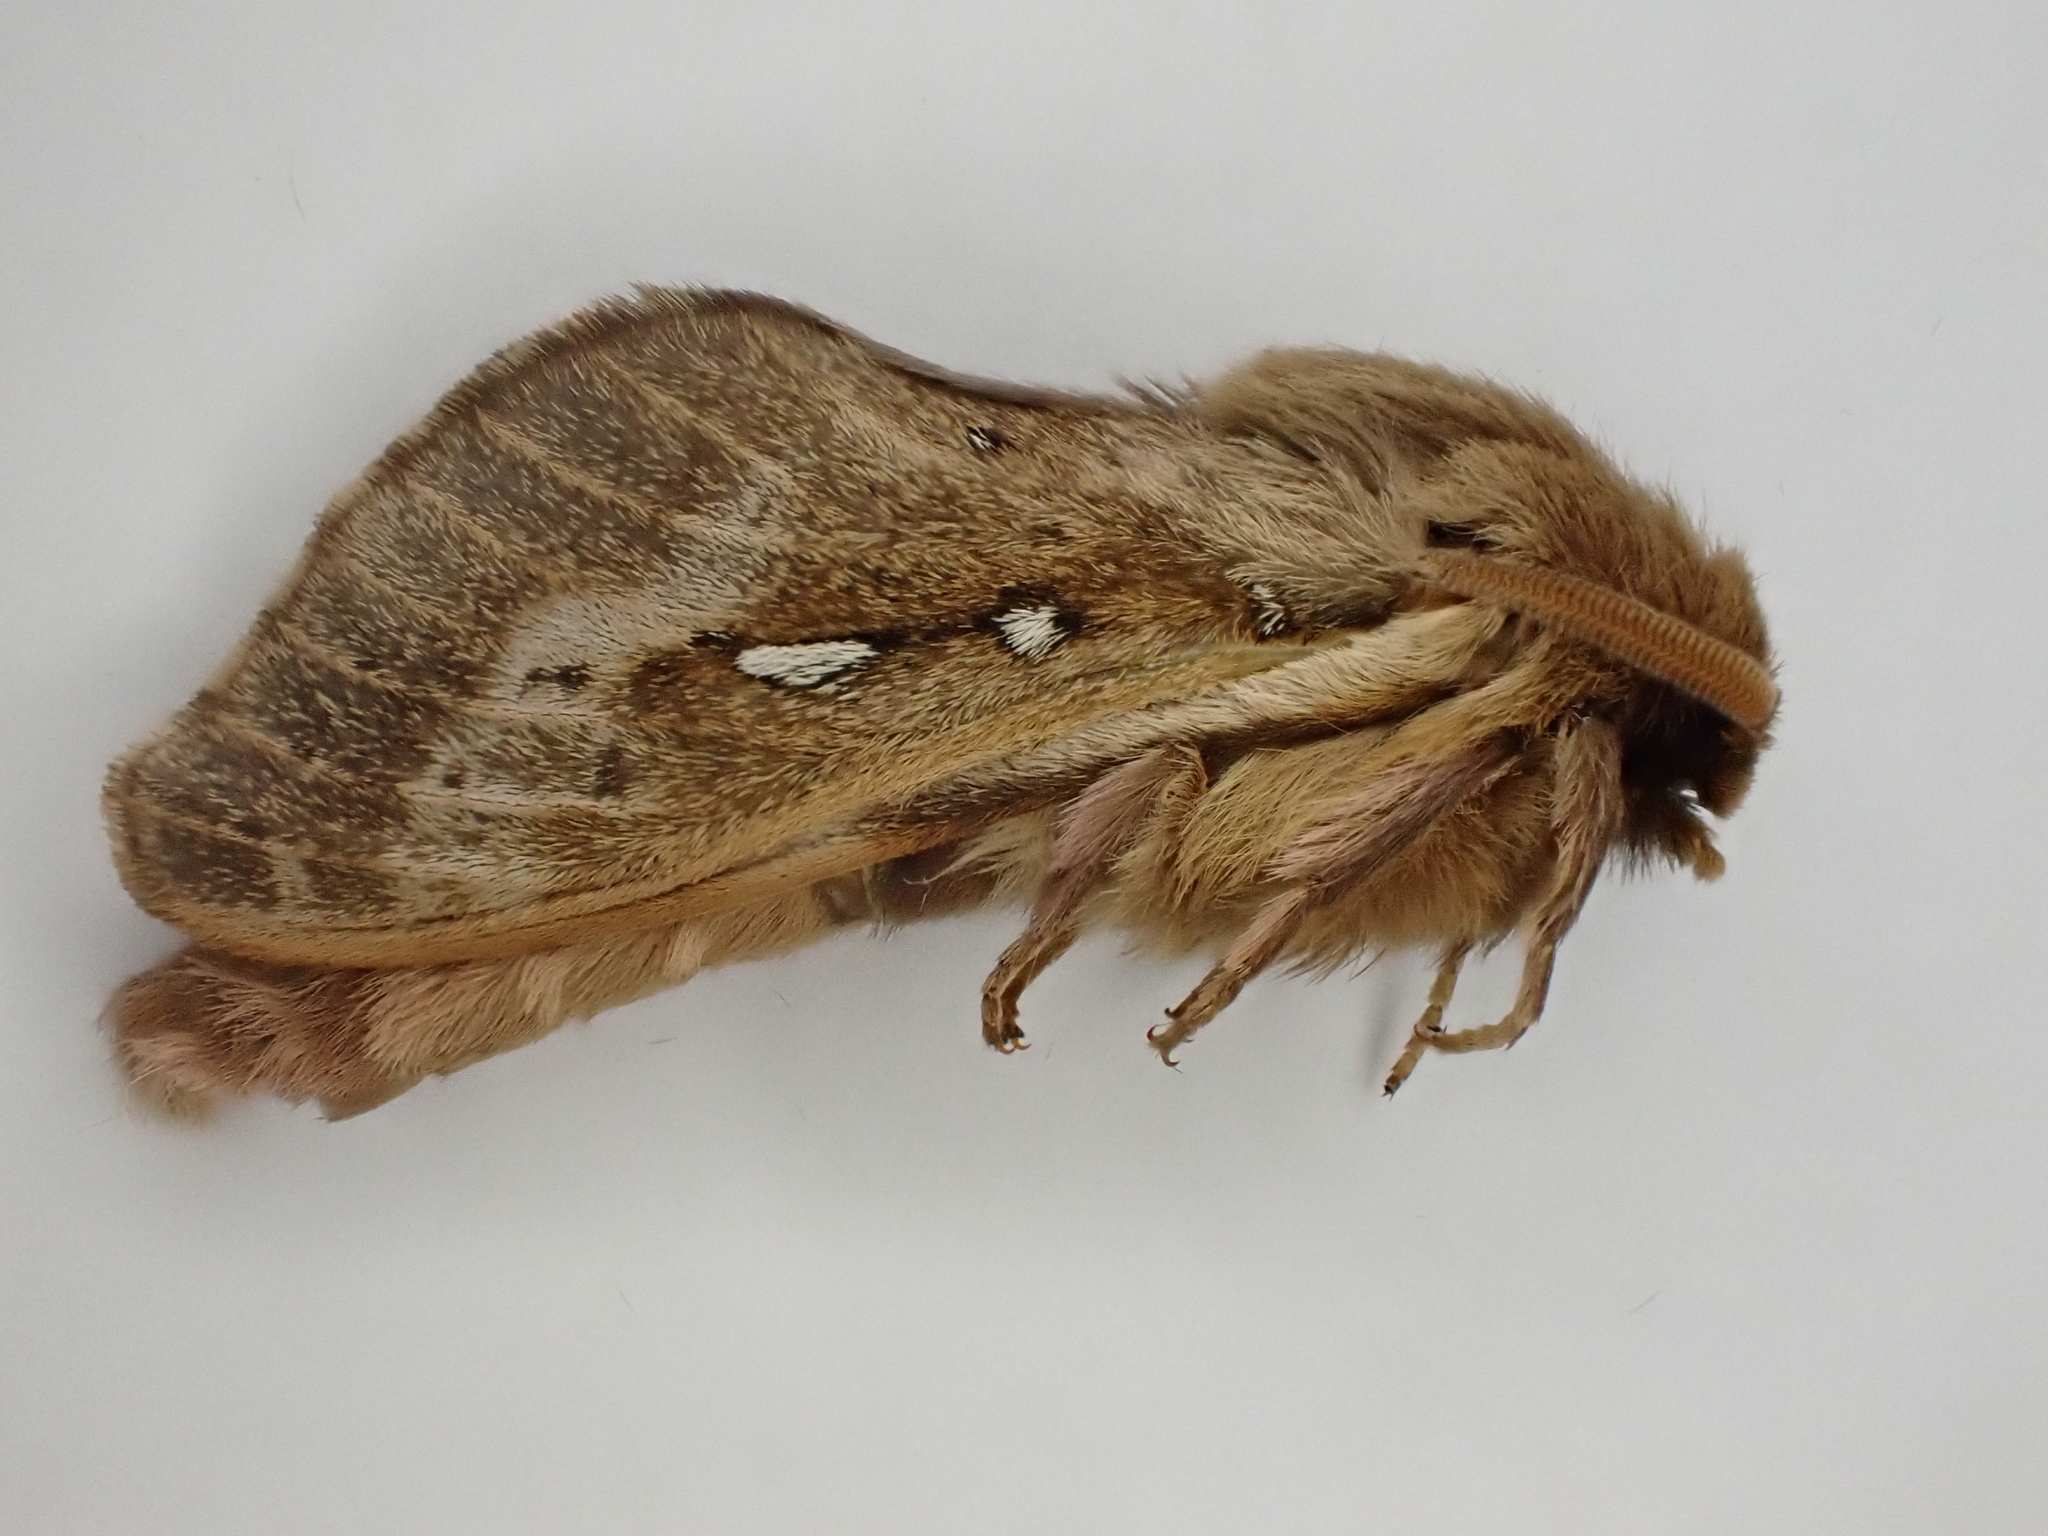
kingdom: Animalia
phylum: Arthropoda
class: Insecta
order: Lepidoptera
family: Hepialidae
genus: Wiseana
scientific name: Wiseana copularis
